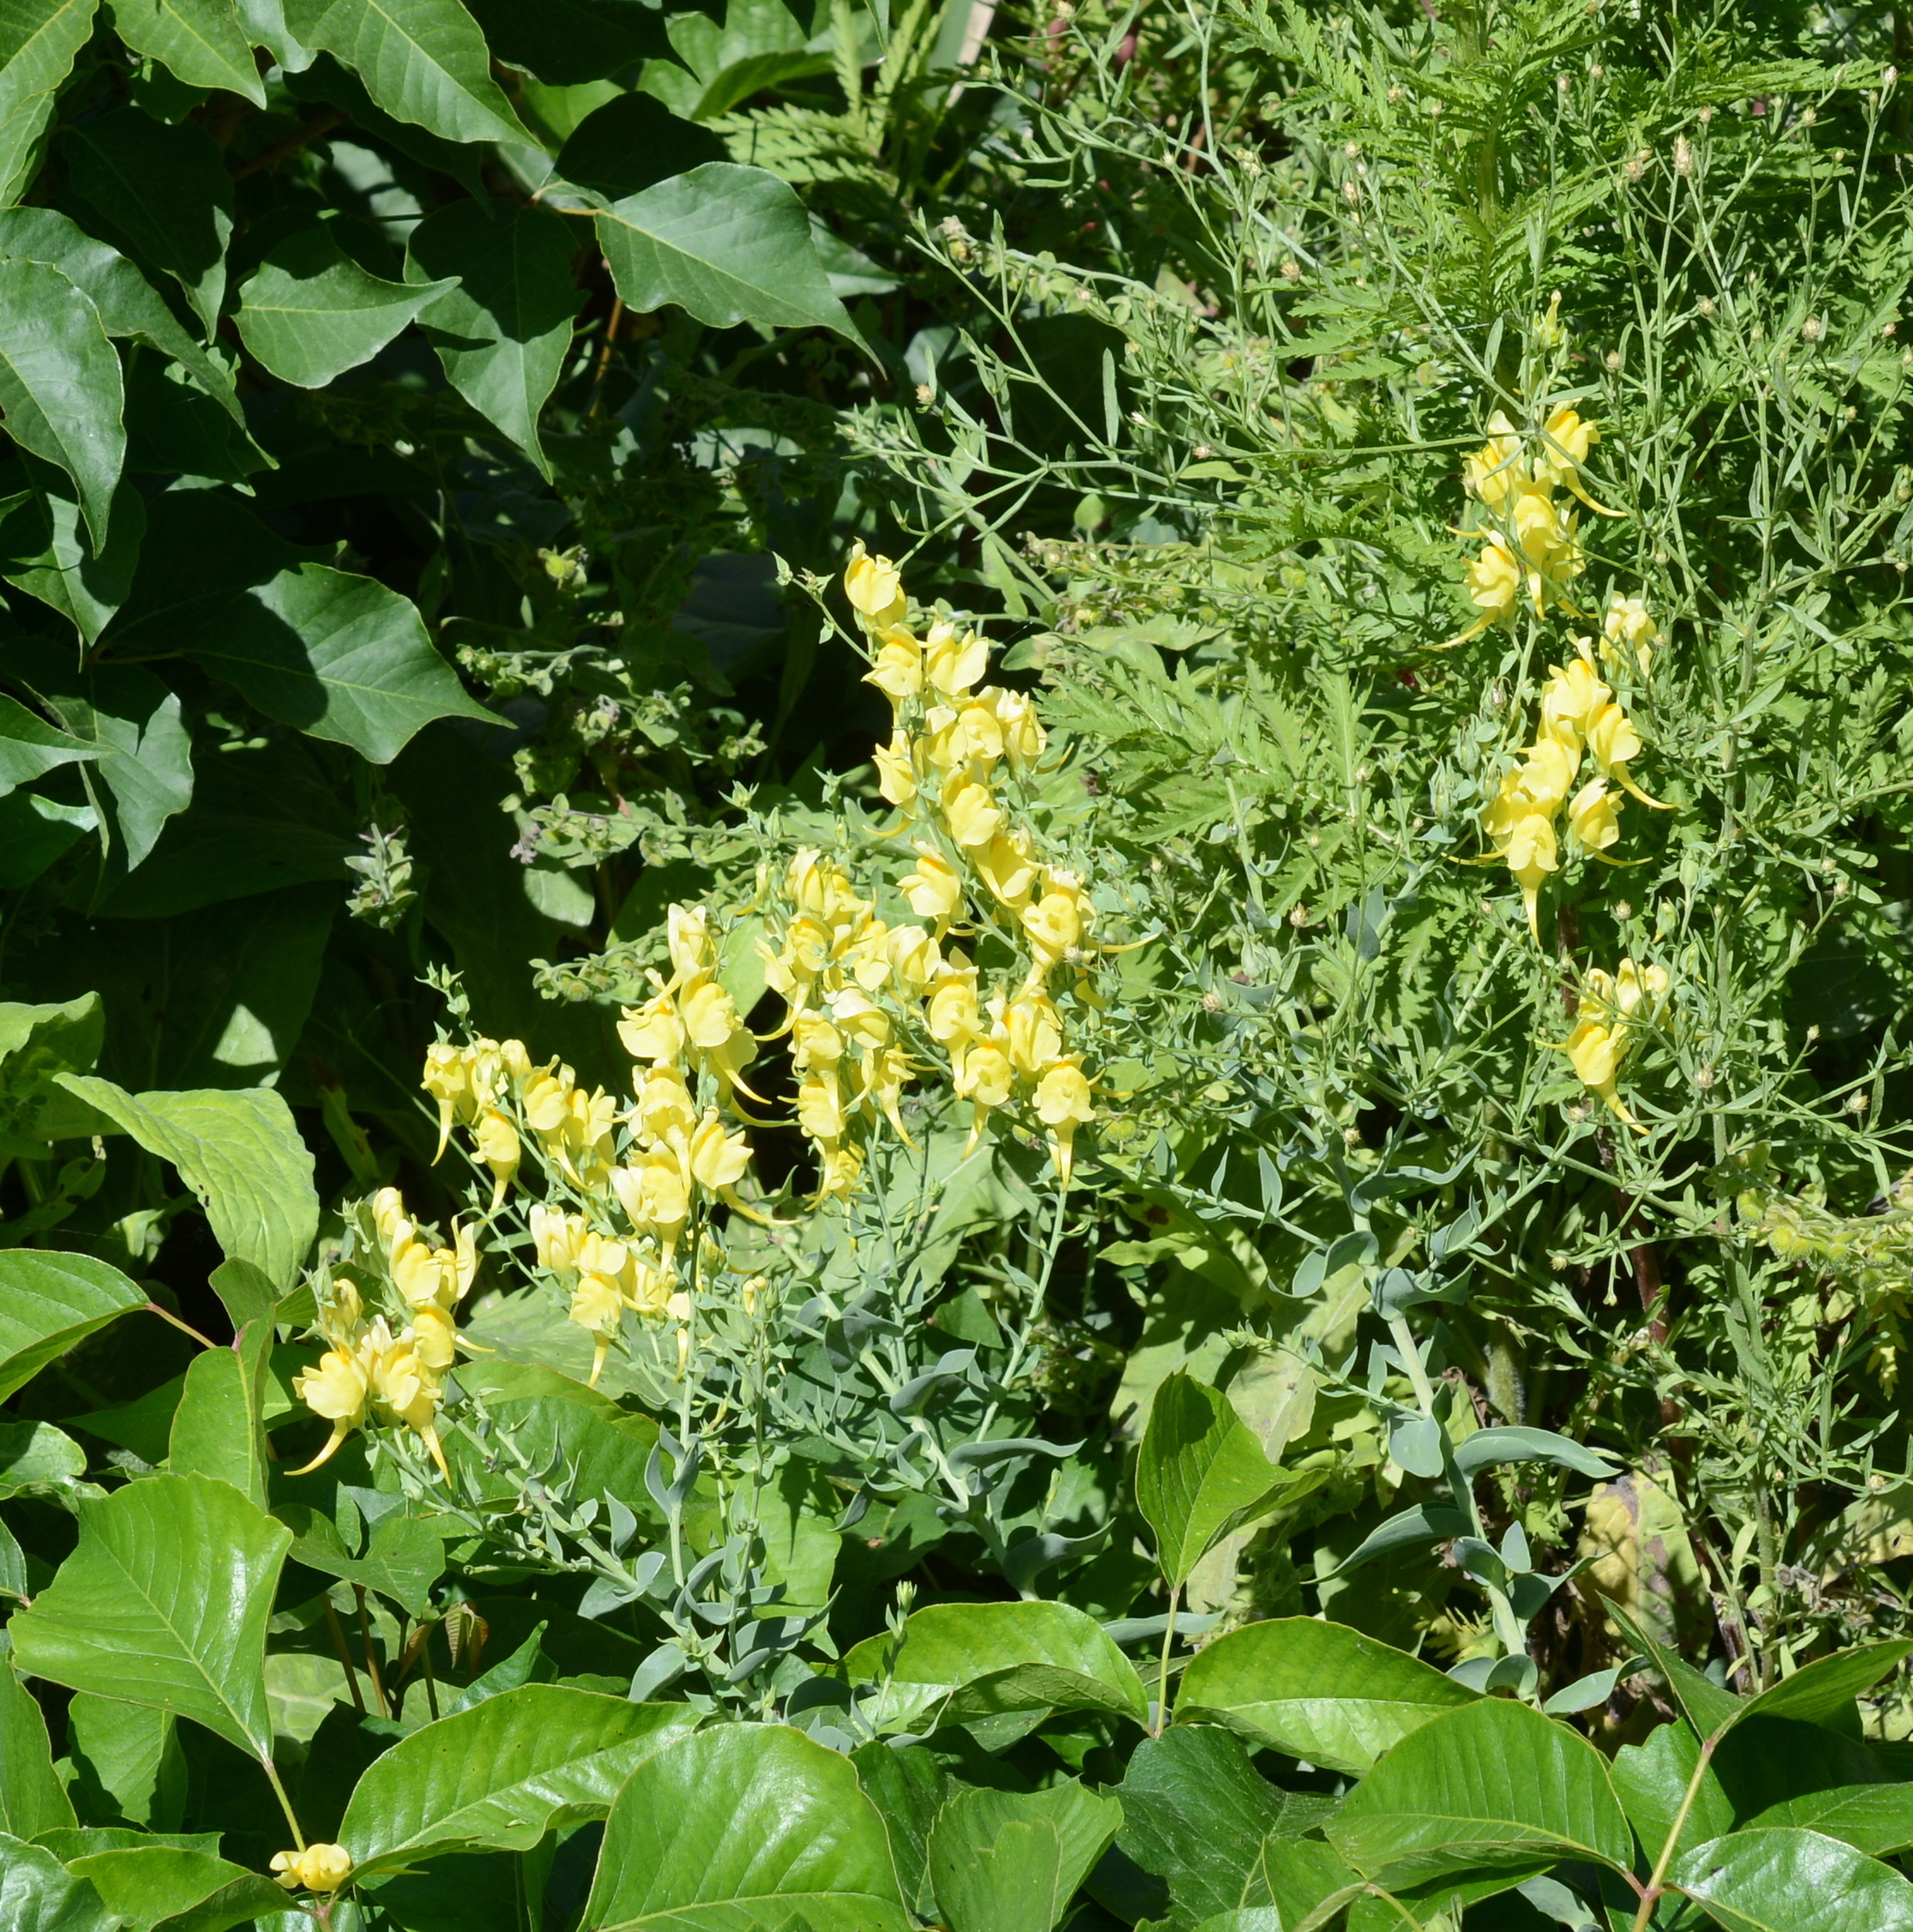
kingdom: Plantae
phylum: Tracheophyta
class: Magnoliopsida
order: Lamiales
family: Plantaginaceae
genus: Linaria
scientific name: Linaria dalmatica
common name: Dalmatian toadflax
